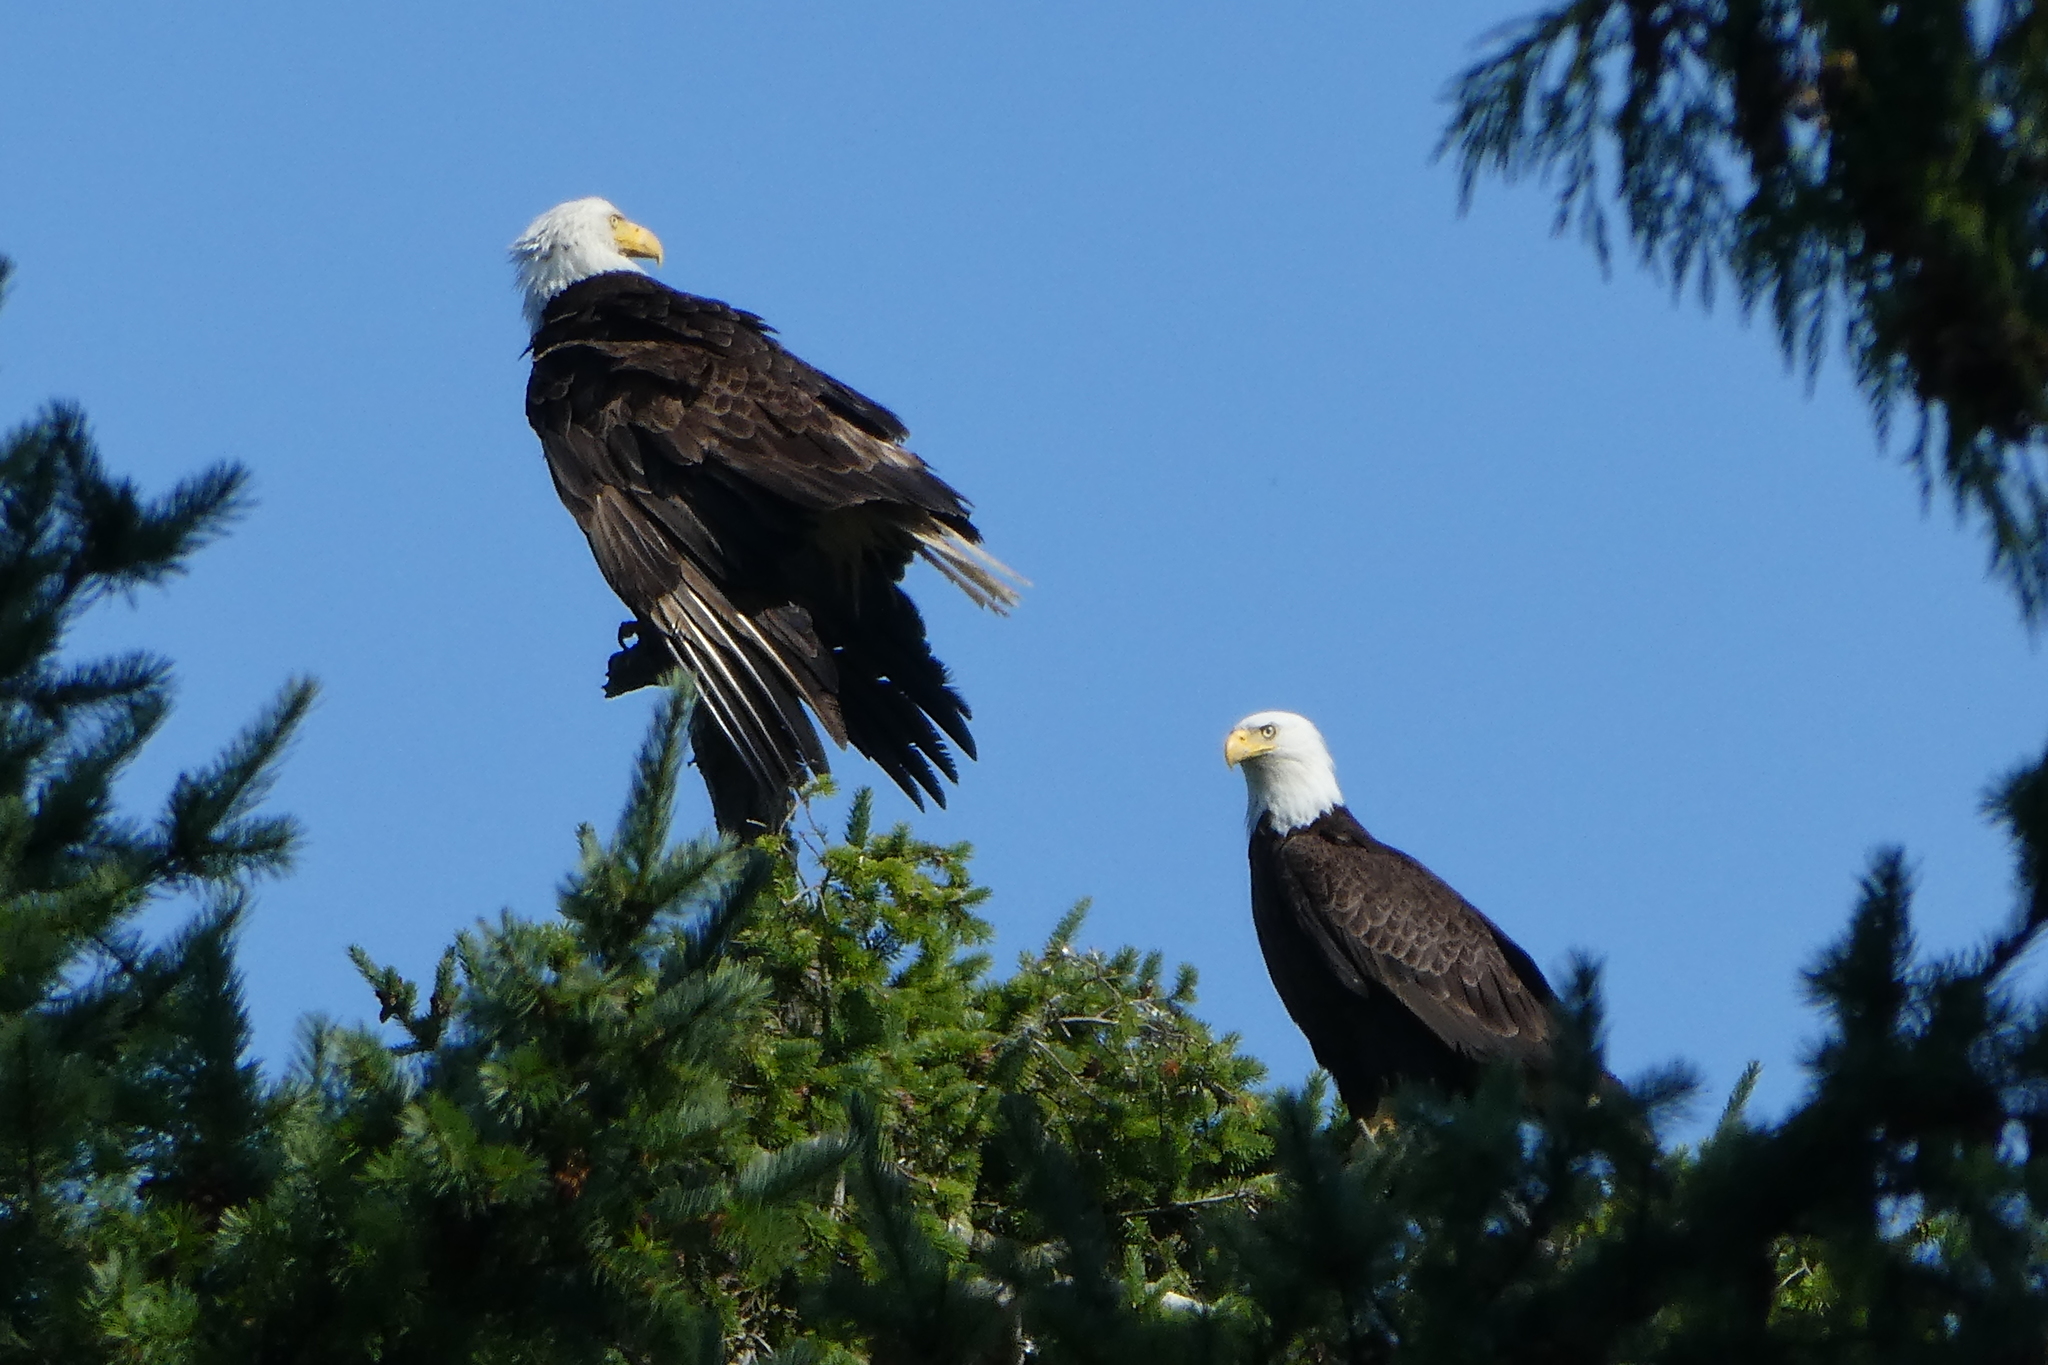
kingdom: Animalia
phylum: Chordata
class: Aves
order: Accipitriformes
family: Accipitridae
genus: Haliaeetus
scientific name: Haliaeetus leucocephalus
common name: Bald eagle
